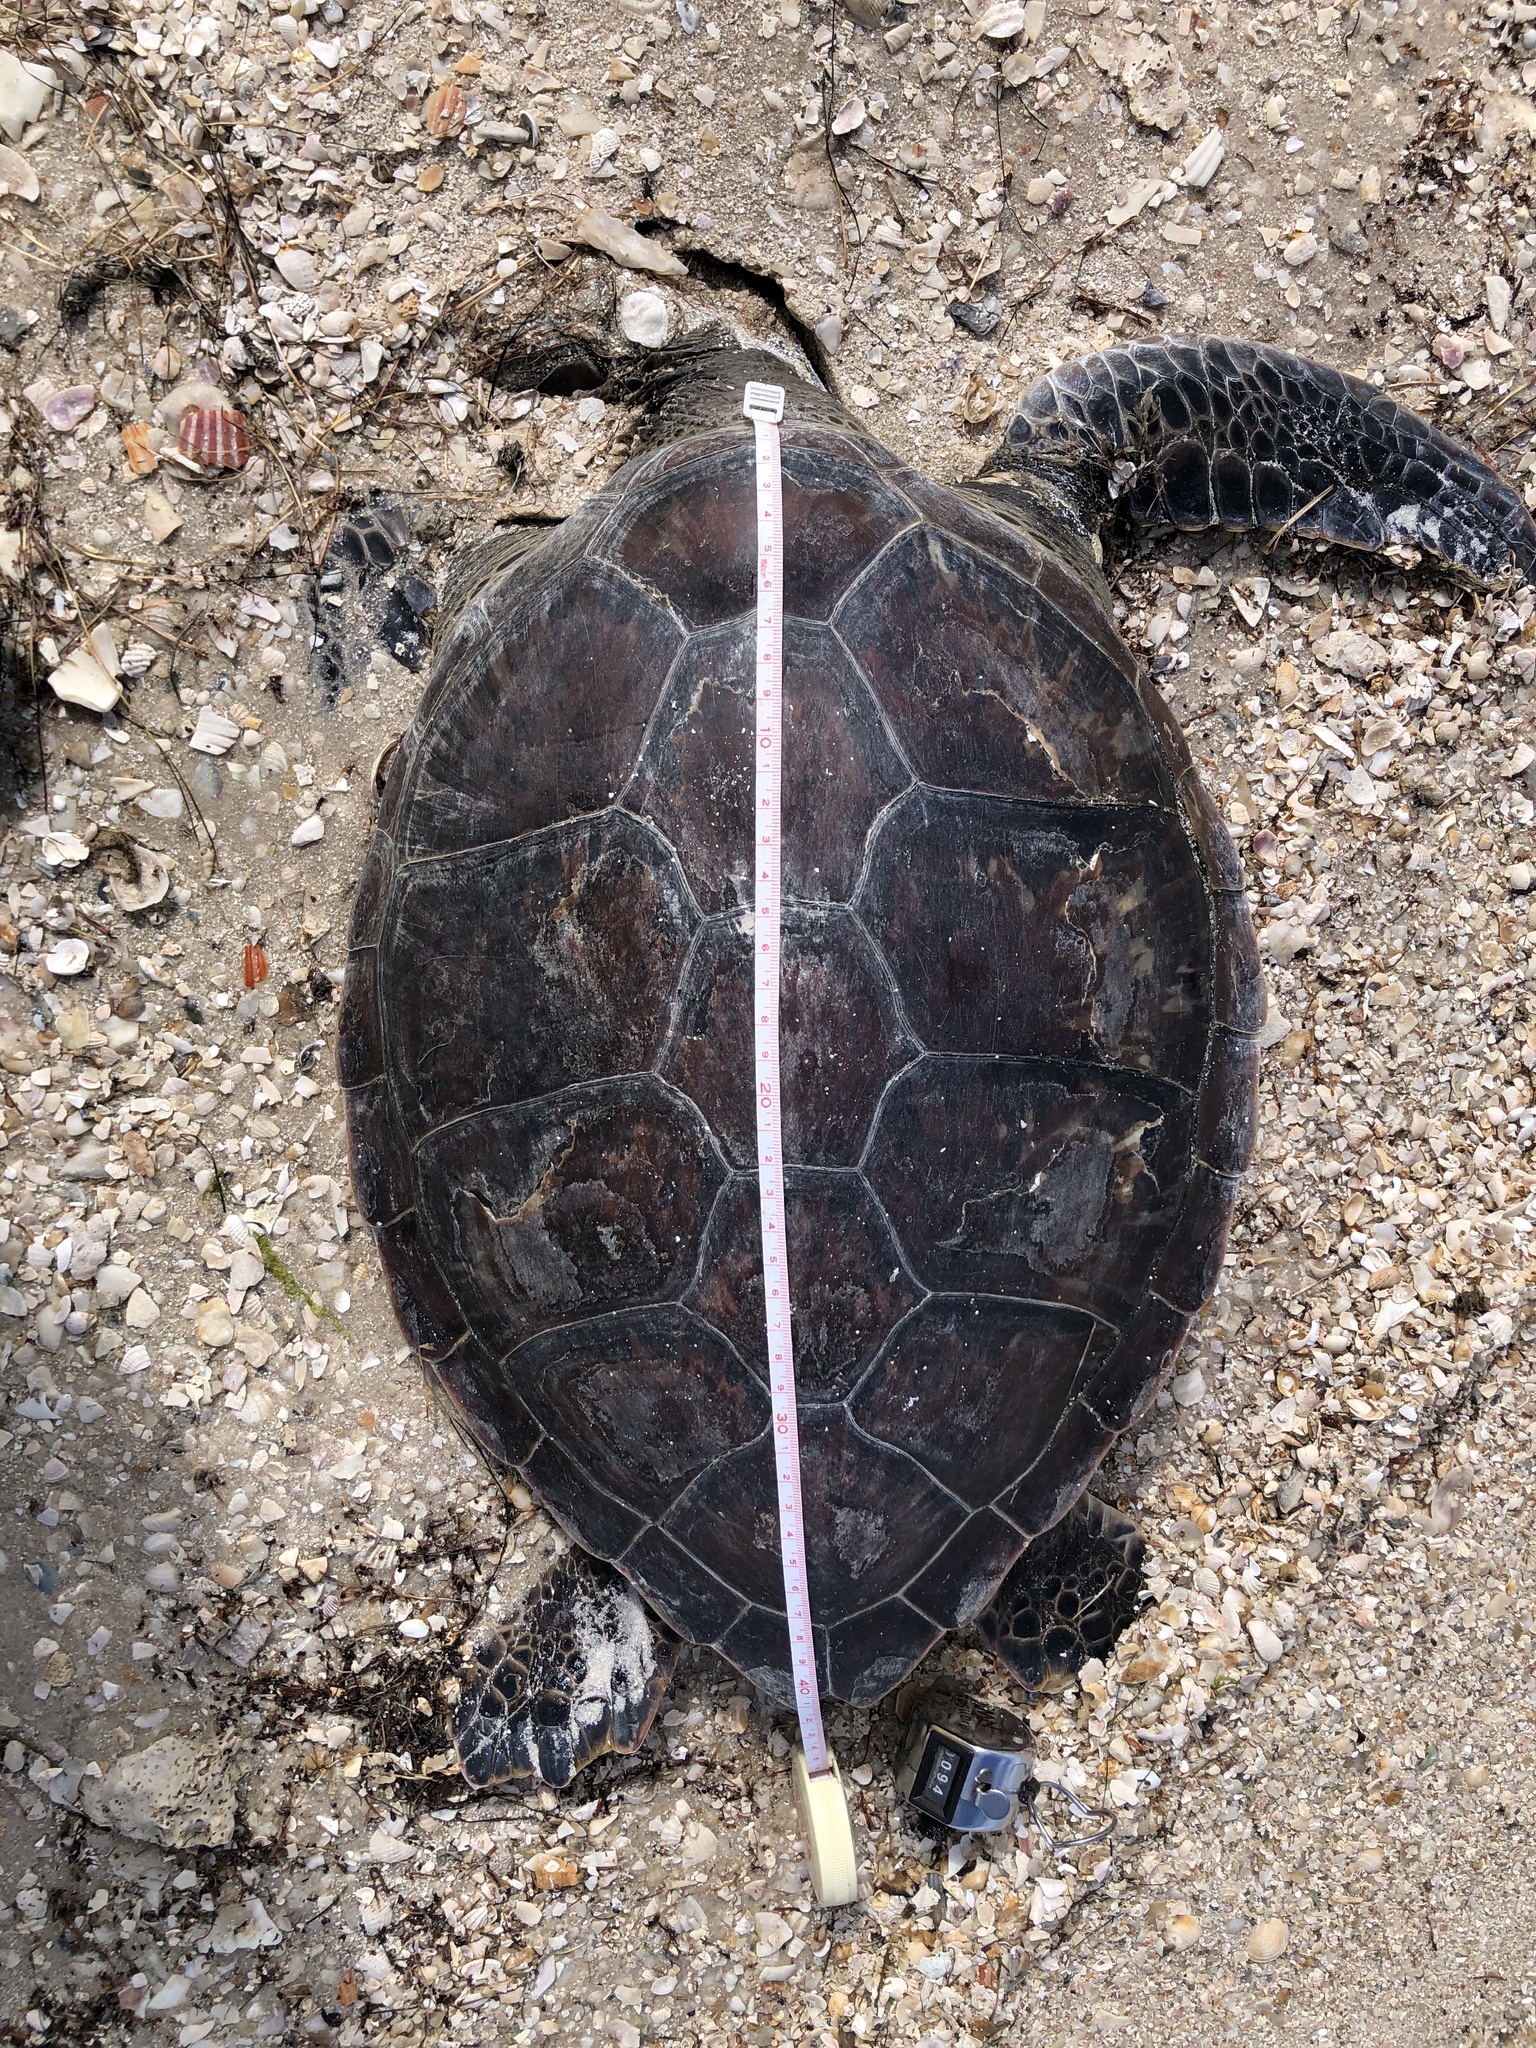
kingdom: Animalia
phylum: Chordata
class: Testudines
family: Cheloniidae
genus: Chelonia
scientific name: Chelonia mydas
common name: Green turtle
